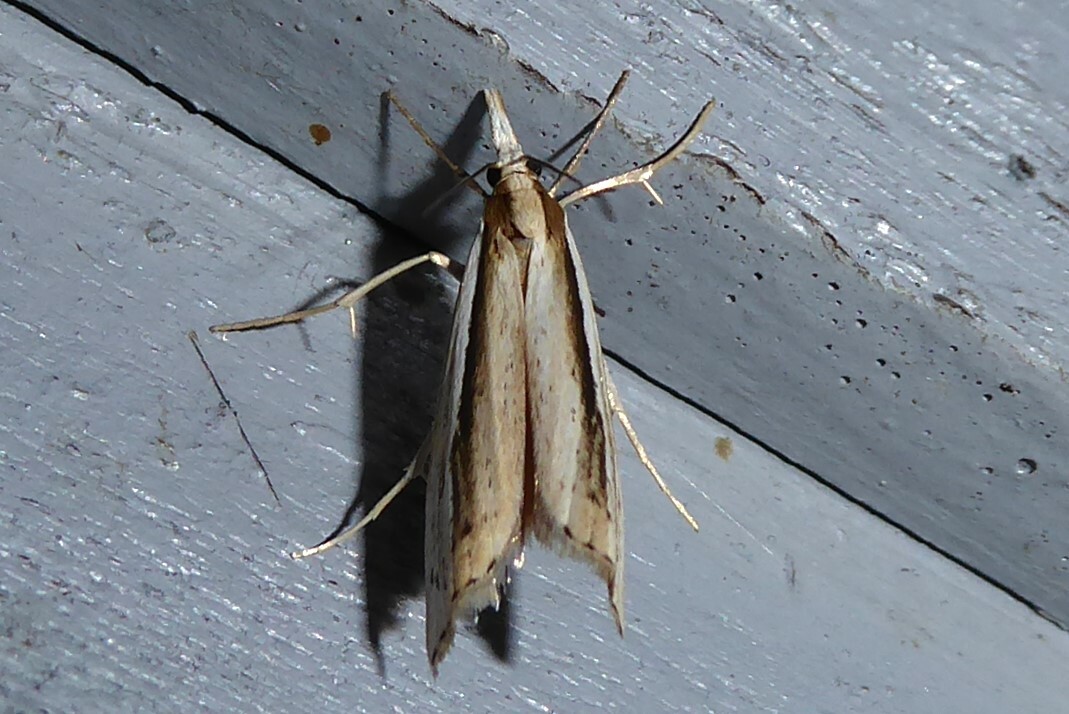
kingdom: Animalia
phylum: Arthropoda
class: Insecta
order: Lepidoptera
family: Crambidae
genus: Orocrambus
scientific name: Orocrambus ramosellus
